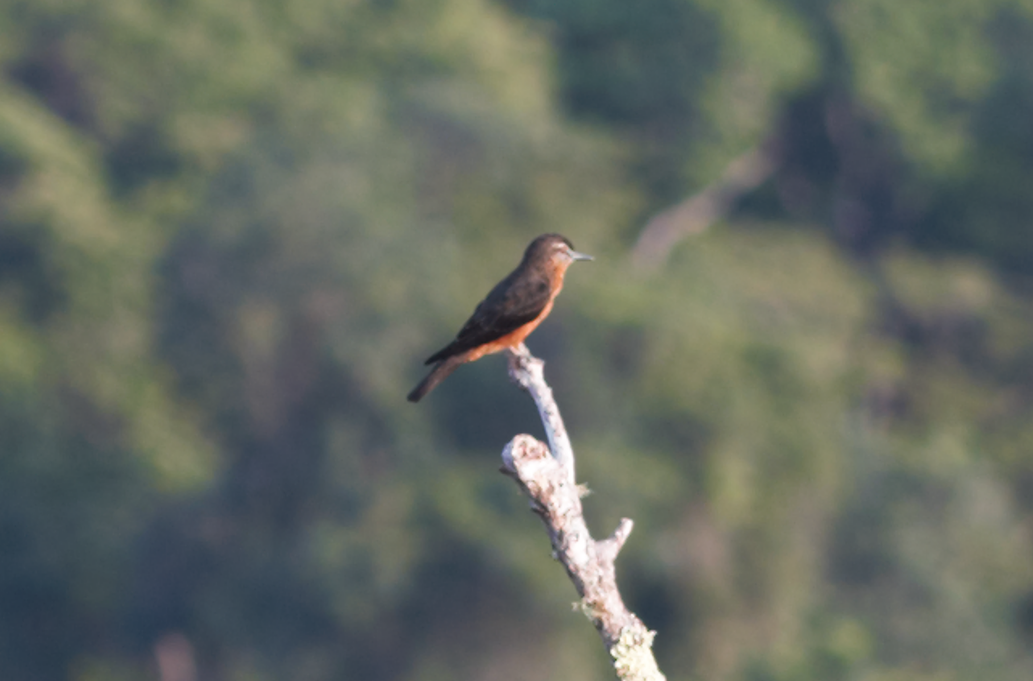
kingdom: Animalia
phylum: Chordata
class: Aves
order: Passeriformes
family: Tyrannidae
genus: Hirundinea
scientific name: Hirundinea ferruginea
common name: Cliff flycatcher
